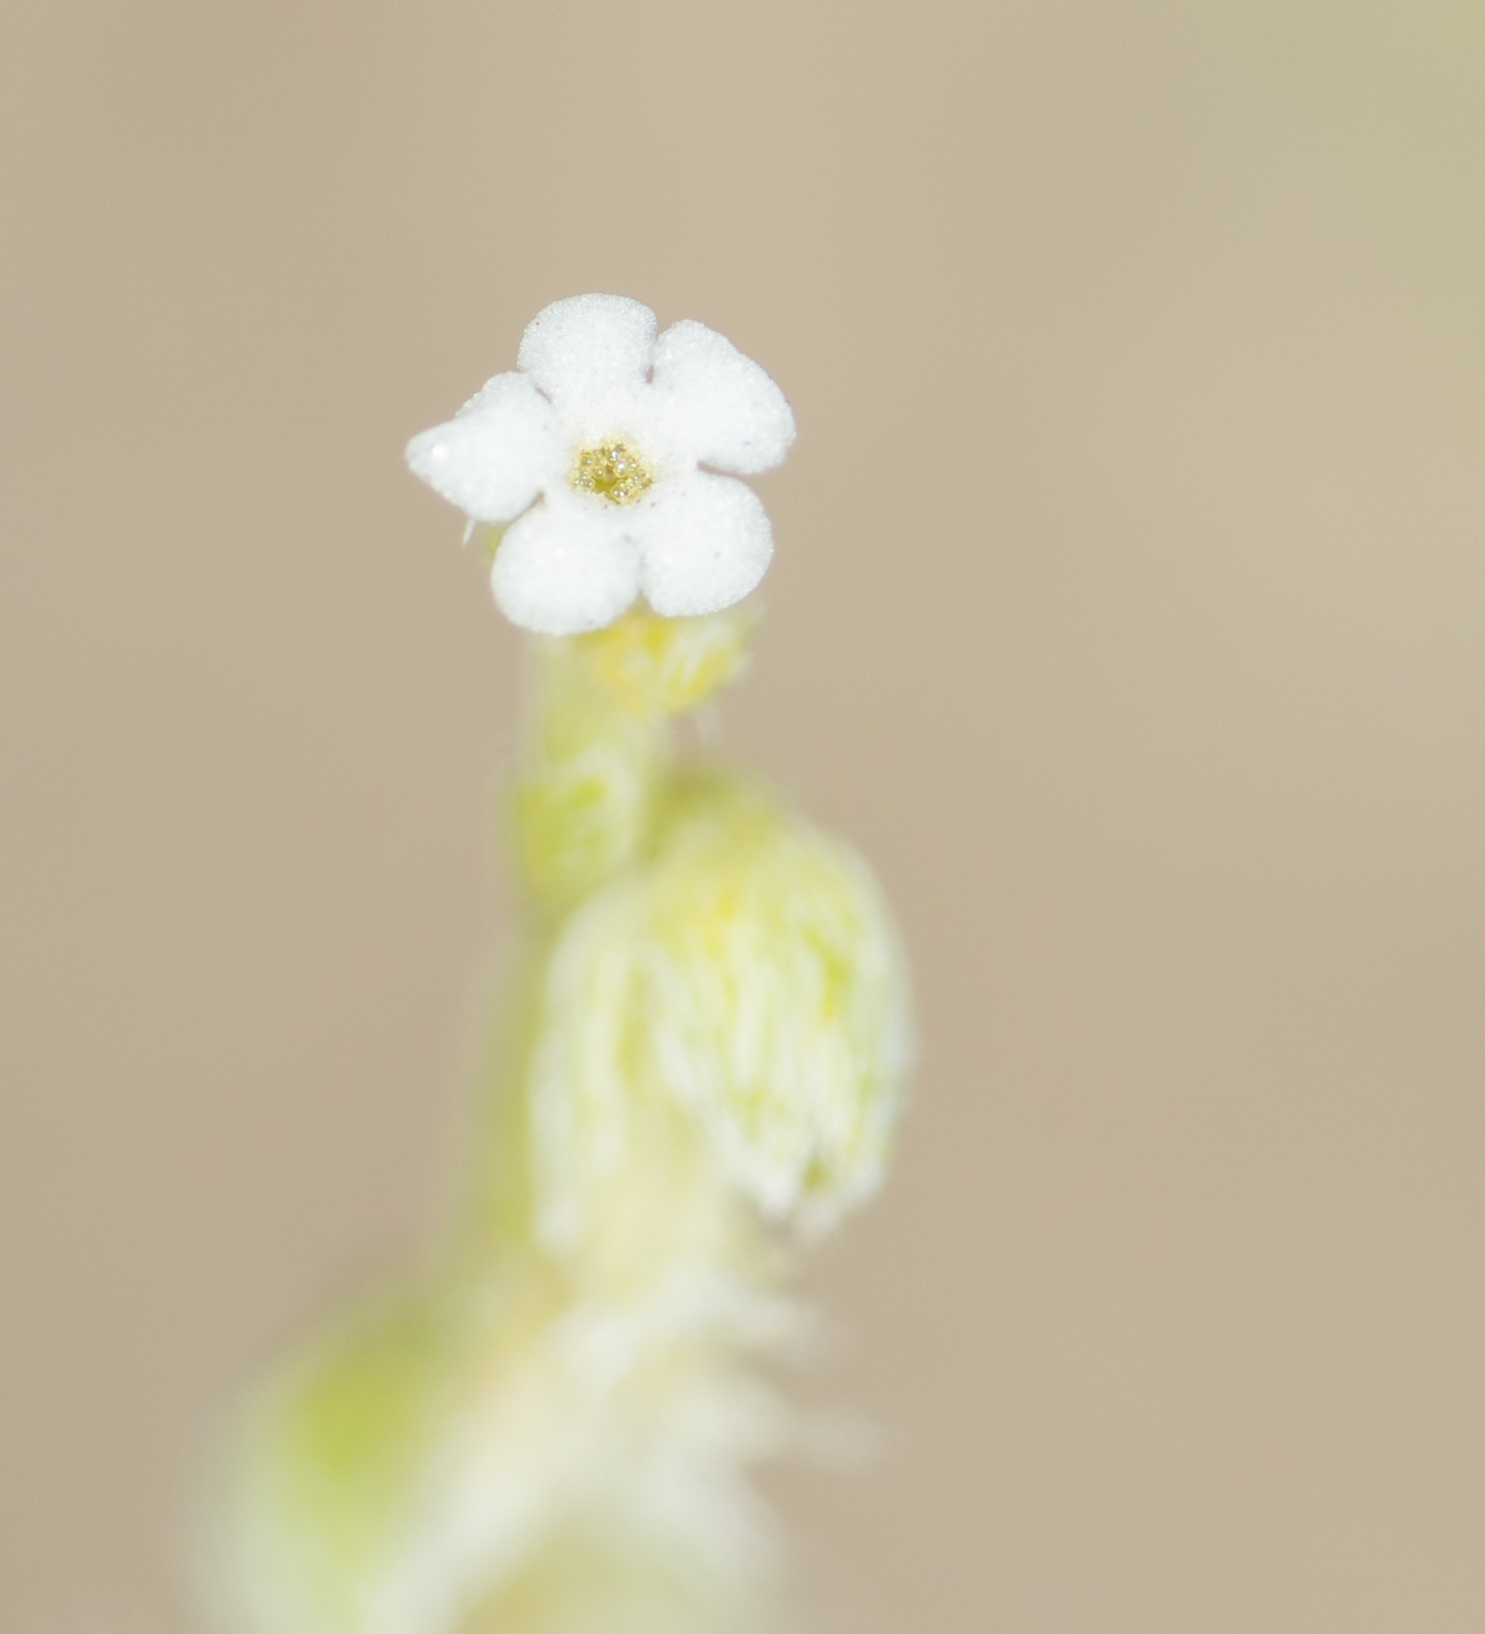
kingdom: Plantae
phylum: Tracheophyta
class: Magnoliopsida
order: Boraginales
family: Boraginaceae
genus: Pectocarya
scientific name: Pectocarya linearis
